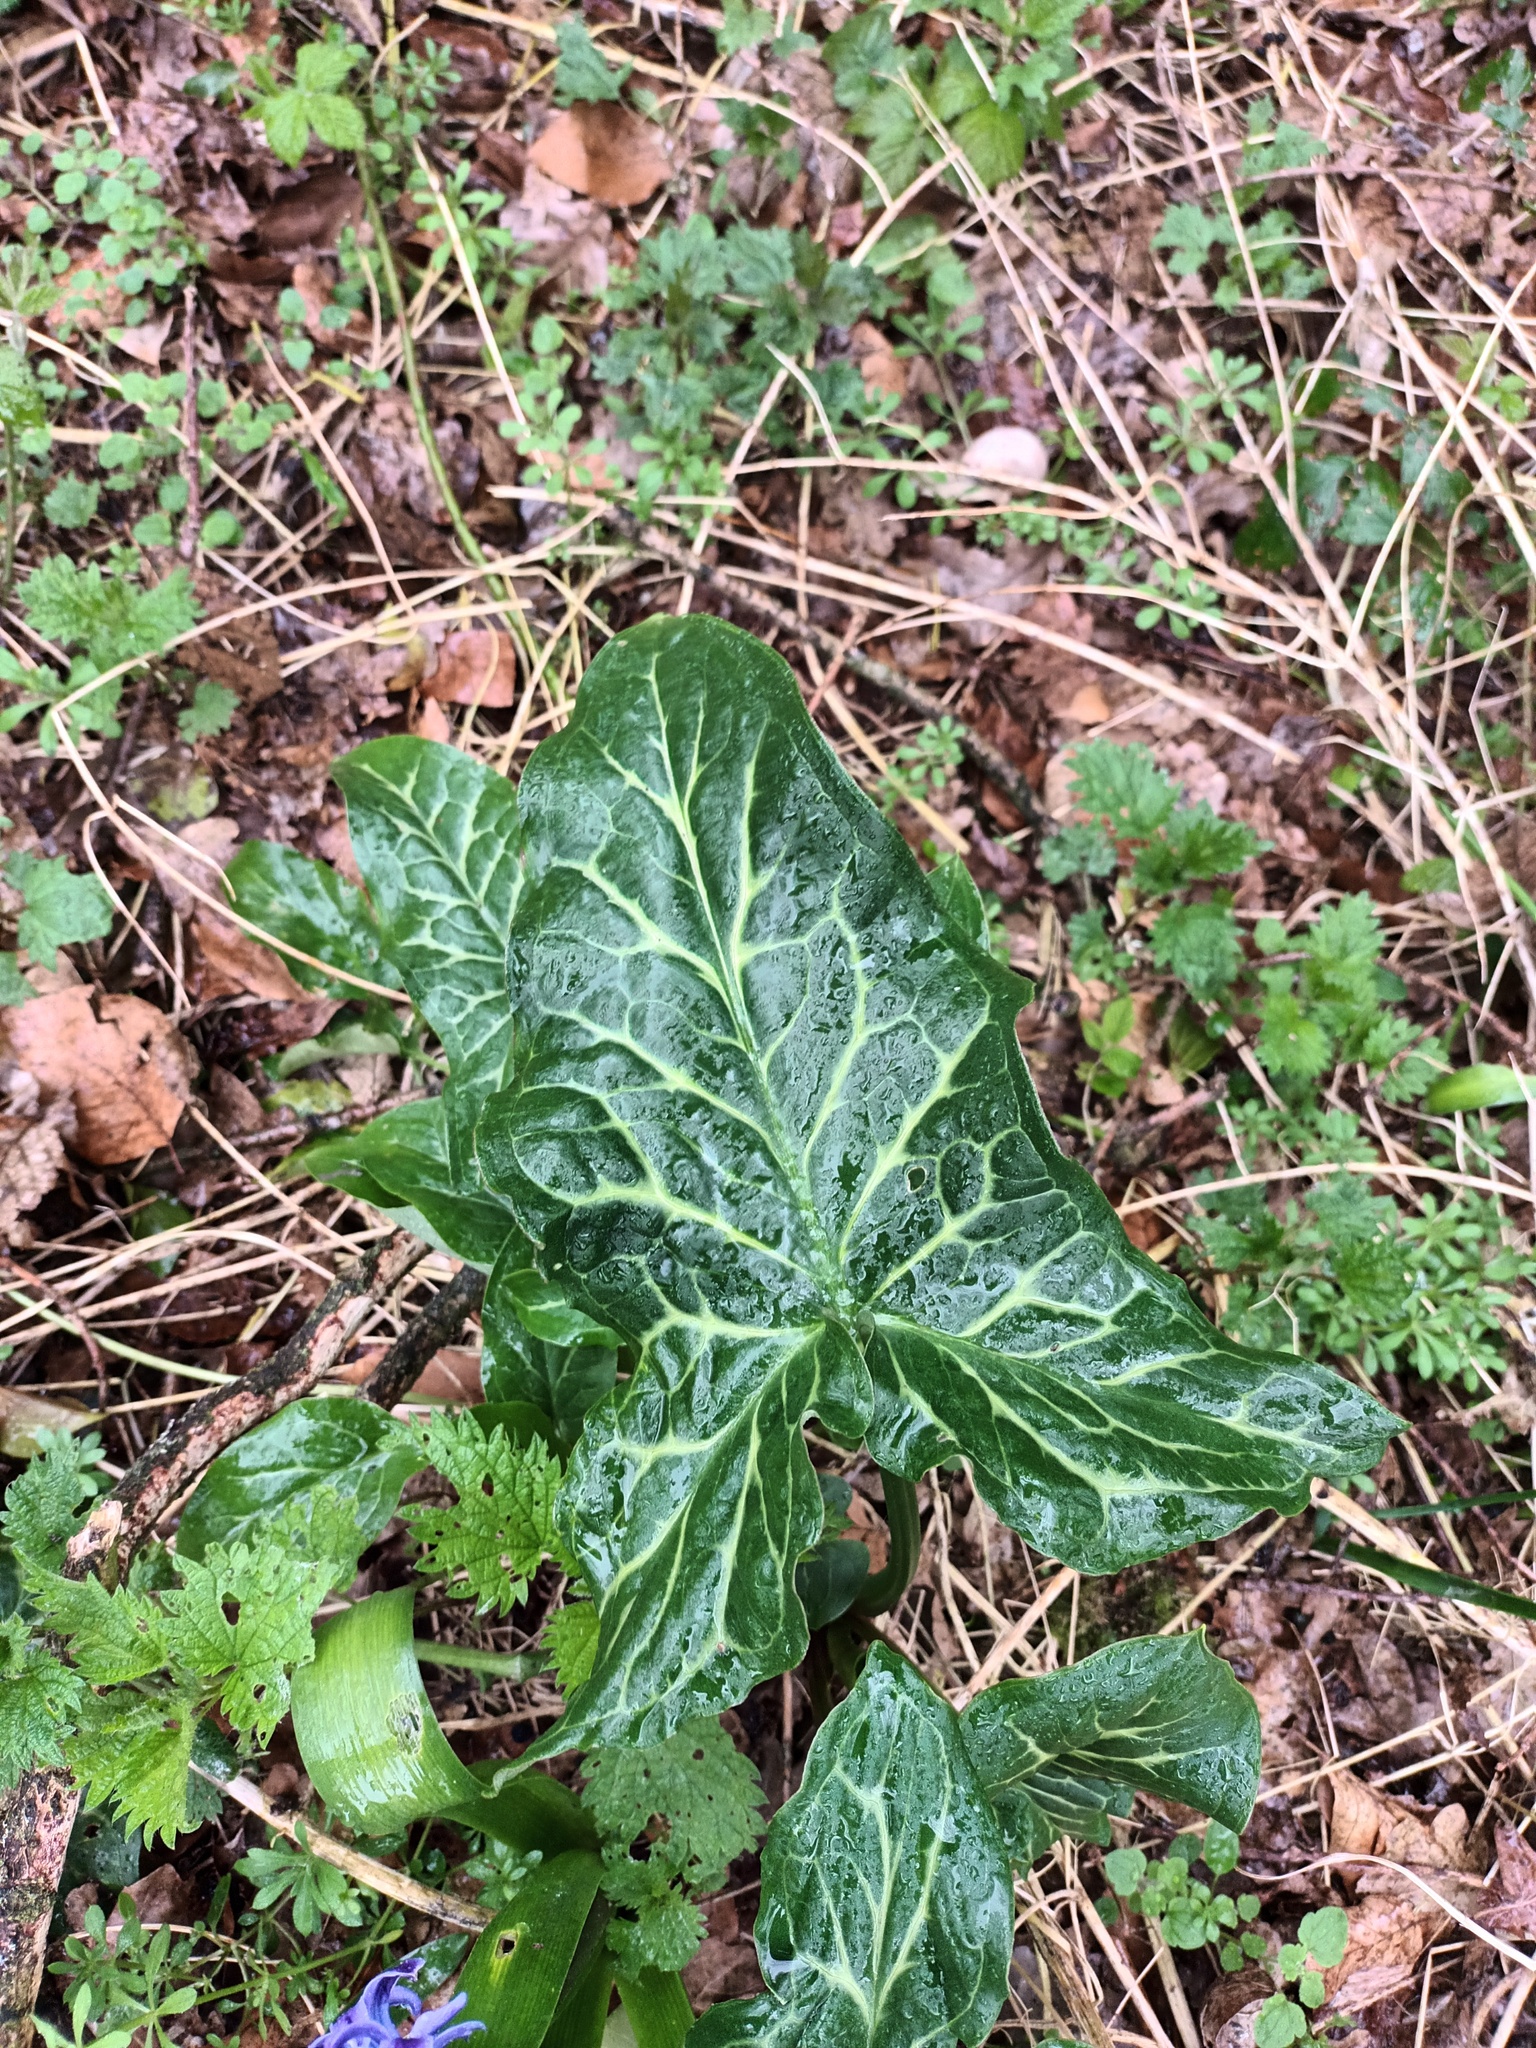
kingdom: Plantae
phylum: Tracheophyta
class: Liliopsida
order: Alismatales
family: Araceae
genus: Arum
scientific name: Arum italicum
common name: Italian lords-and-ladies
